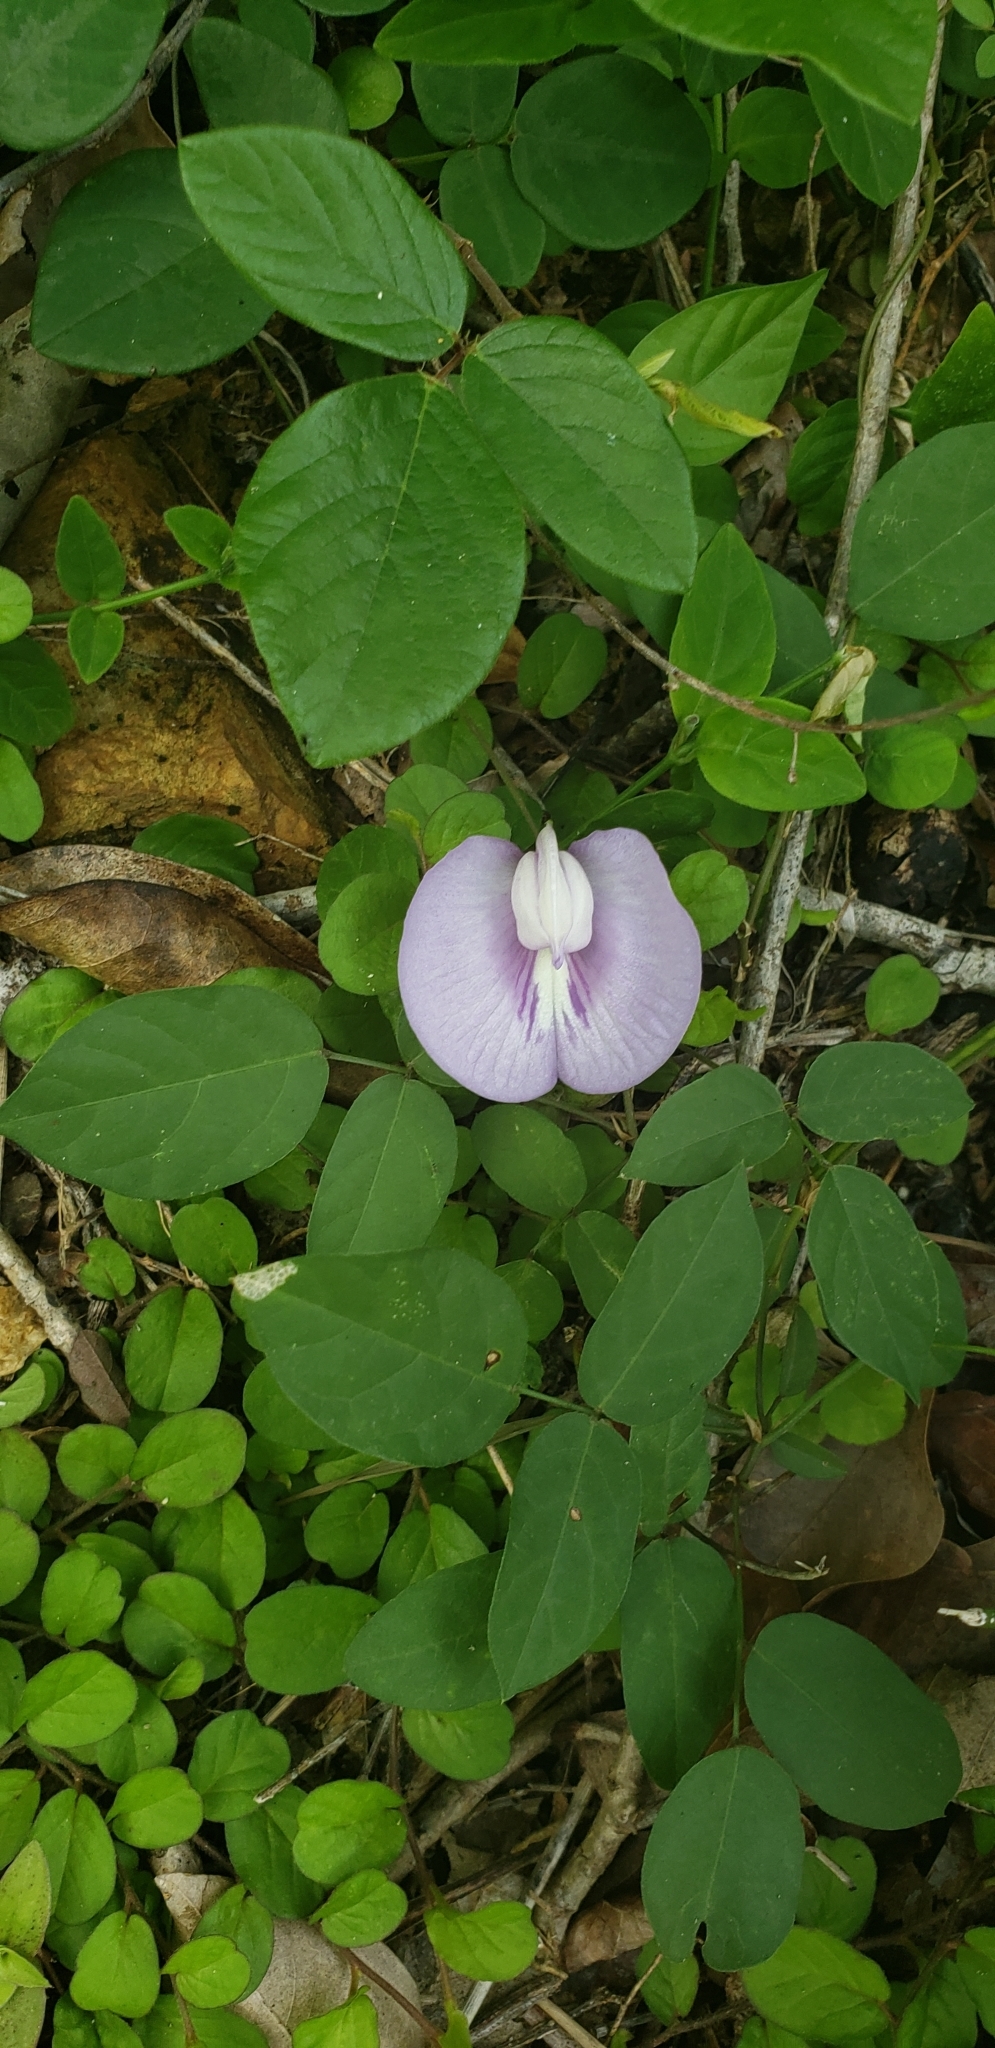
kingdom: Plantae
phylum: Tracheophyta
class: Magnoliopsida
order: Fabales
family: Fabaceae
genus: Centrosema
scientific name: Centrosema virginianum
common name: Butterfly-pea
